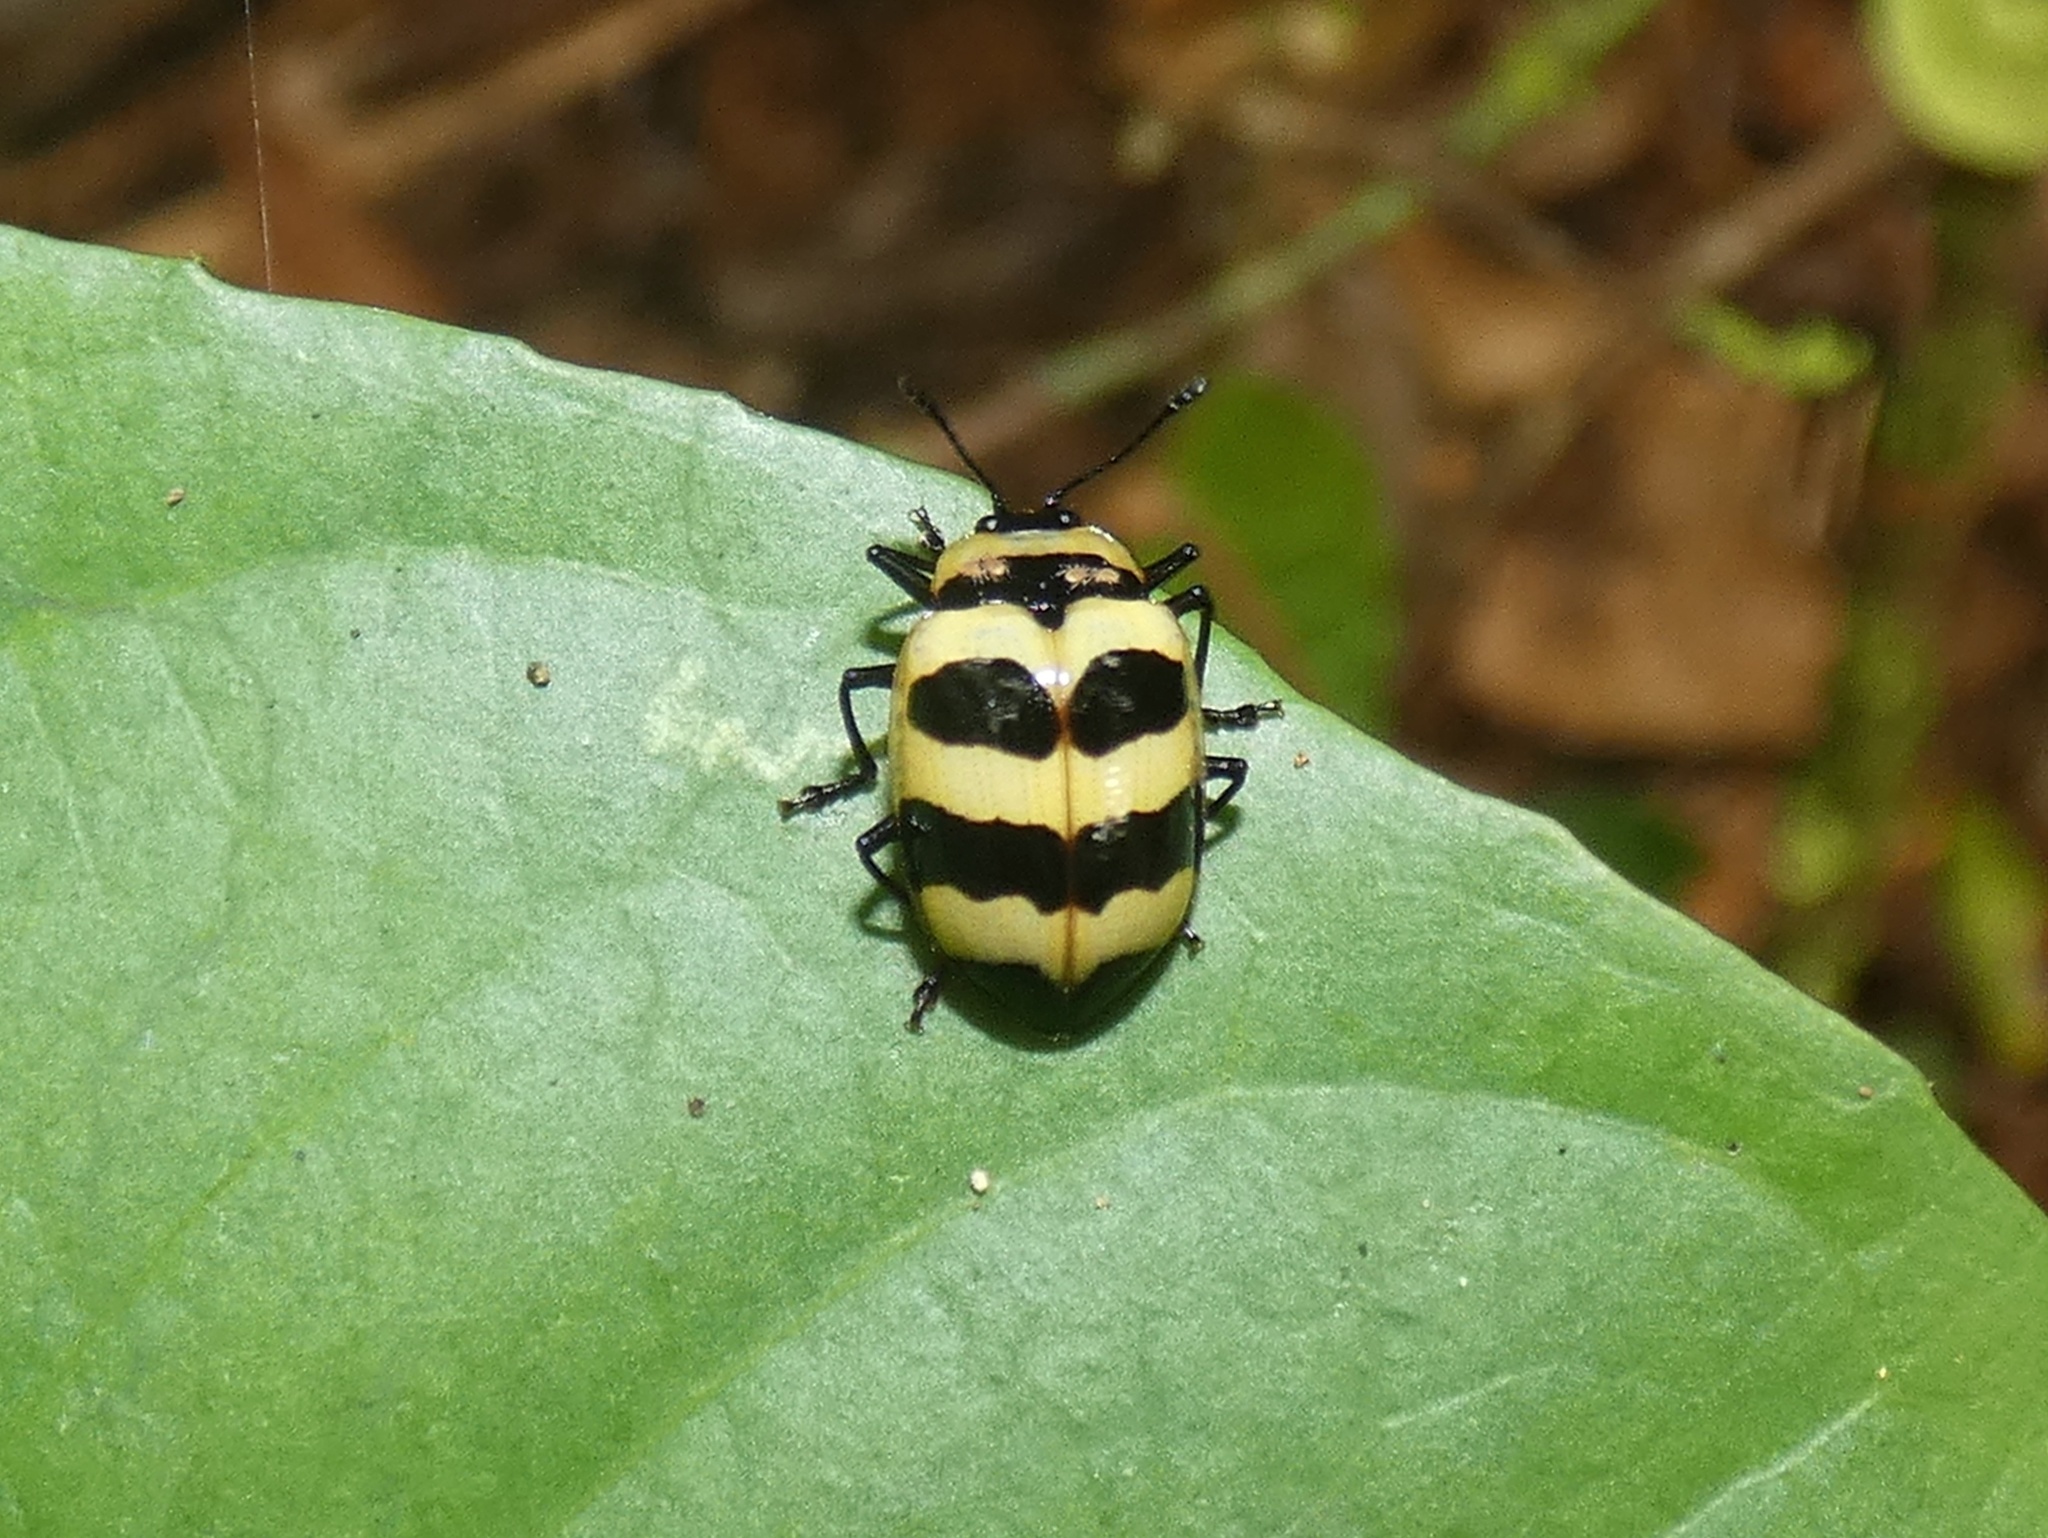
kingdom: Animalia
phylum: Arthropoda
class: Insecta
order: Coleoptera
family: Erotylidae
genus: Oligocorynus
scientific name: Oligocorynus zebra
